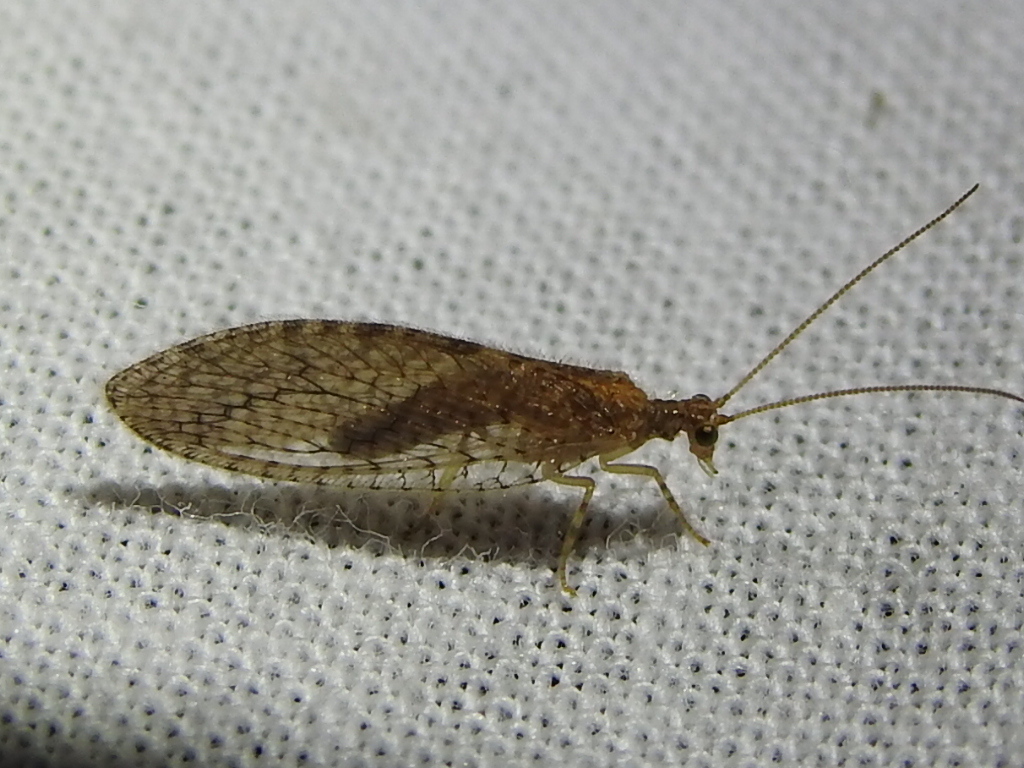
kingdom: Animalia
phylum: Arthropoda
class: Insecta
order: Neuroptera
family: Hemerobiidae
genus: Micromus
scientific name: Micromus posticus
